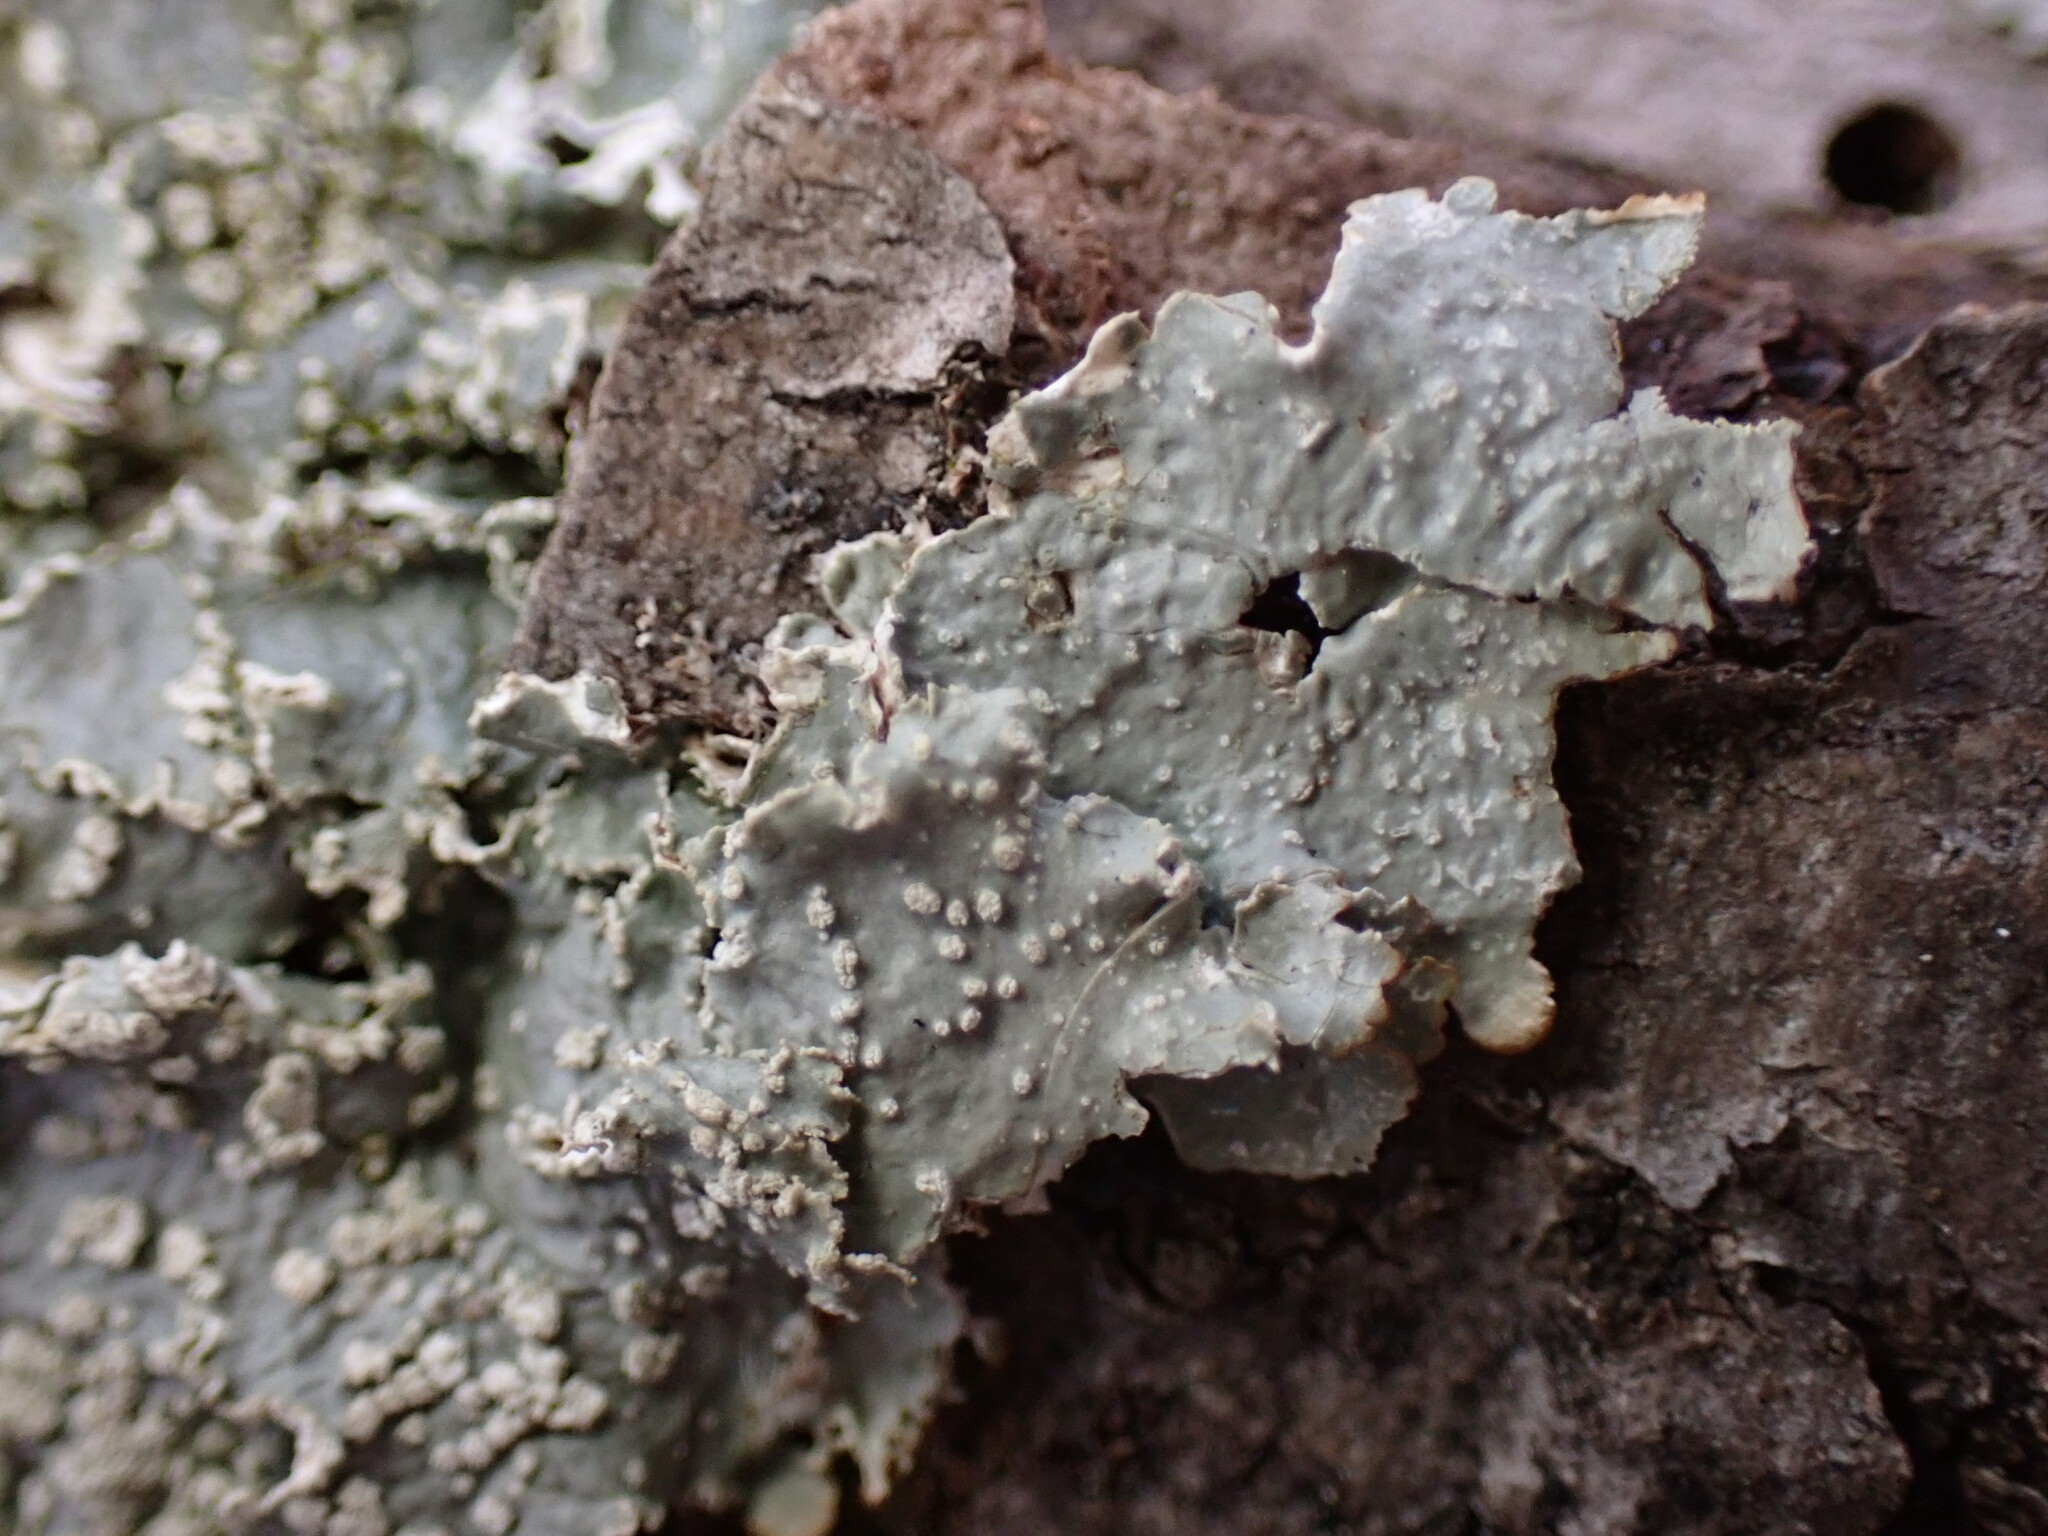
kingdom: Fungi
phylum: Ascomycota
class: Lecanoromycetes
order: Lecanorales
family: Parmeliaceae
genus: Punctelia
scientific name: Punctelia caseana
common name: Moondust speckled lichen
